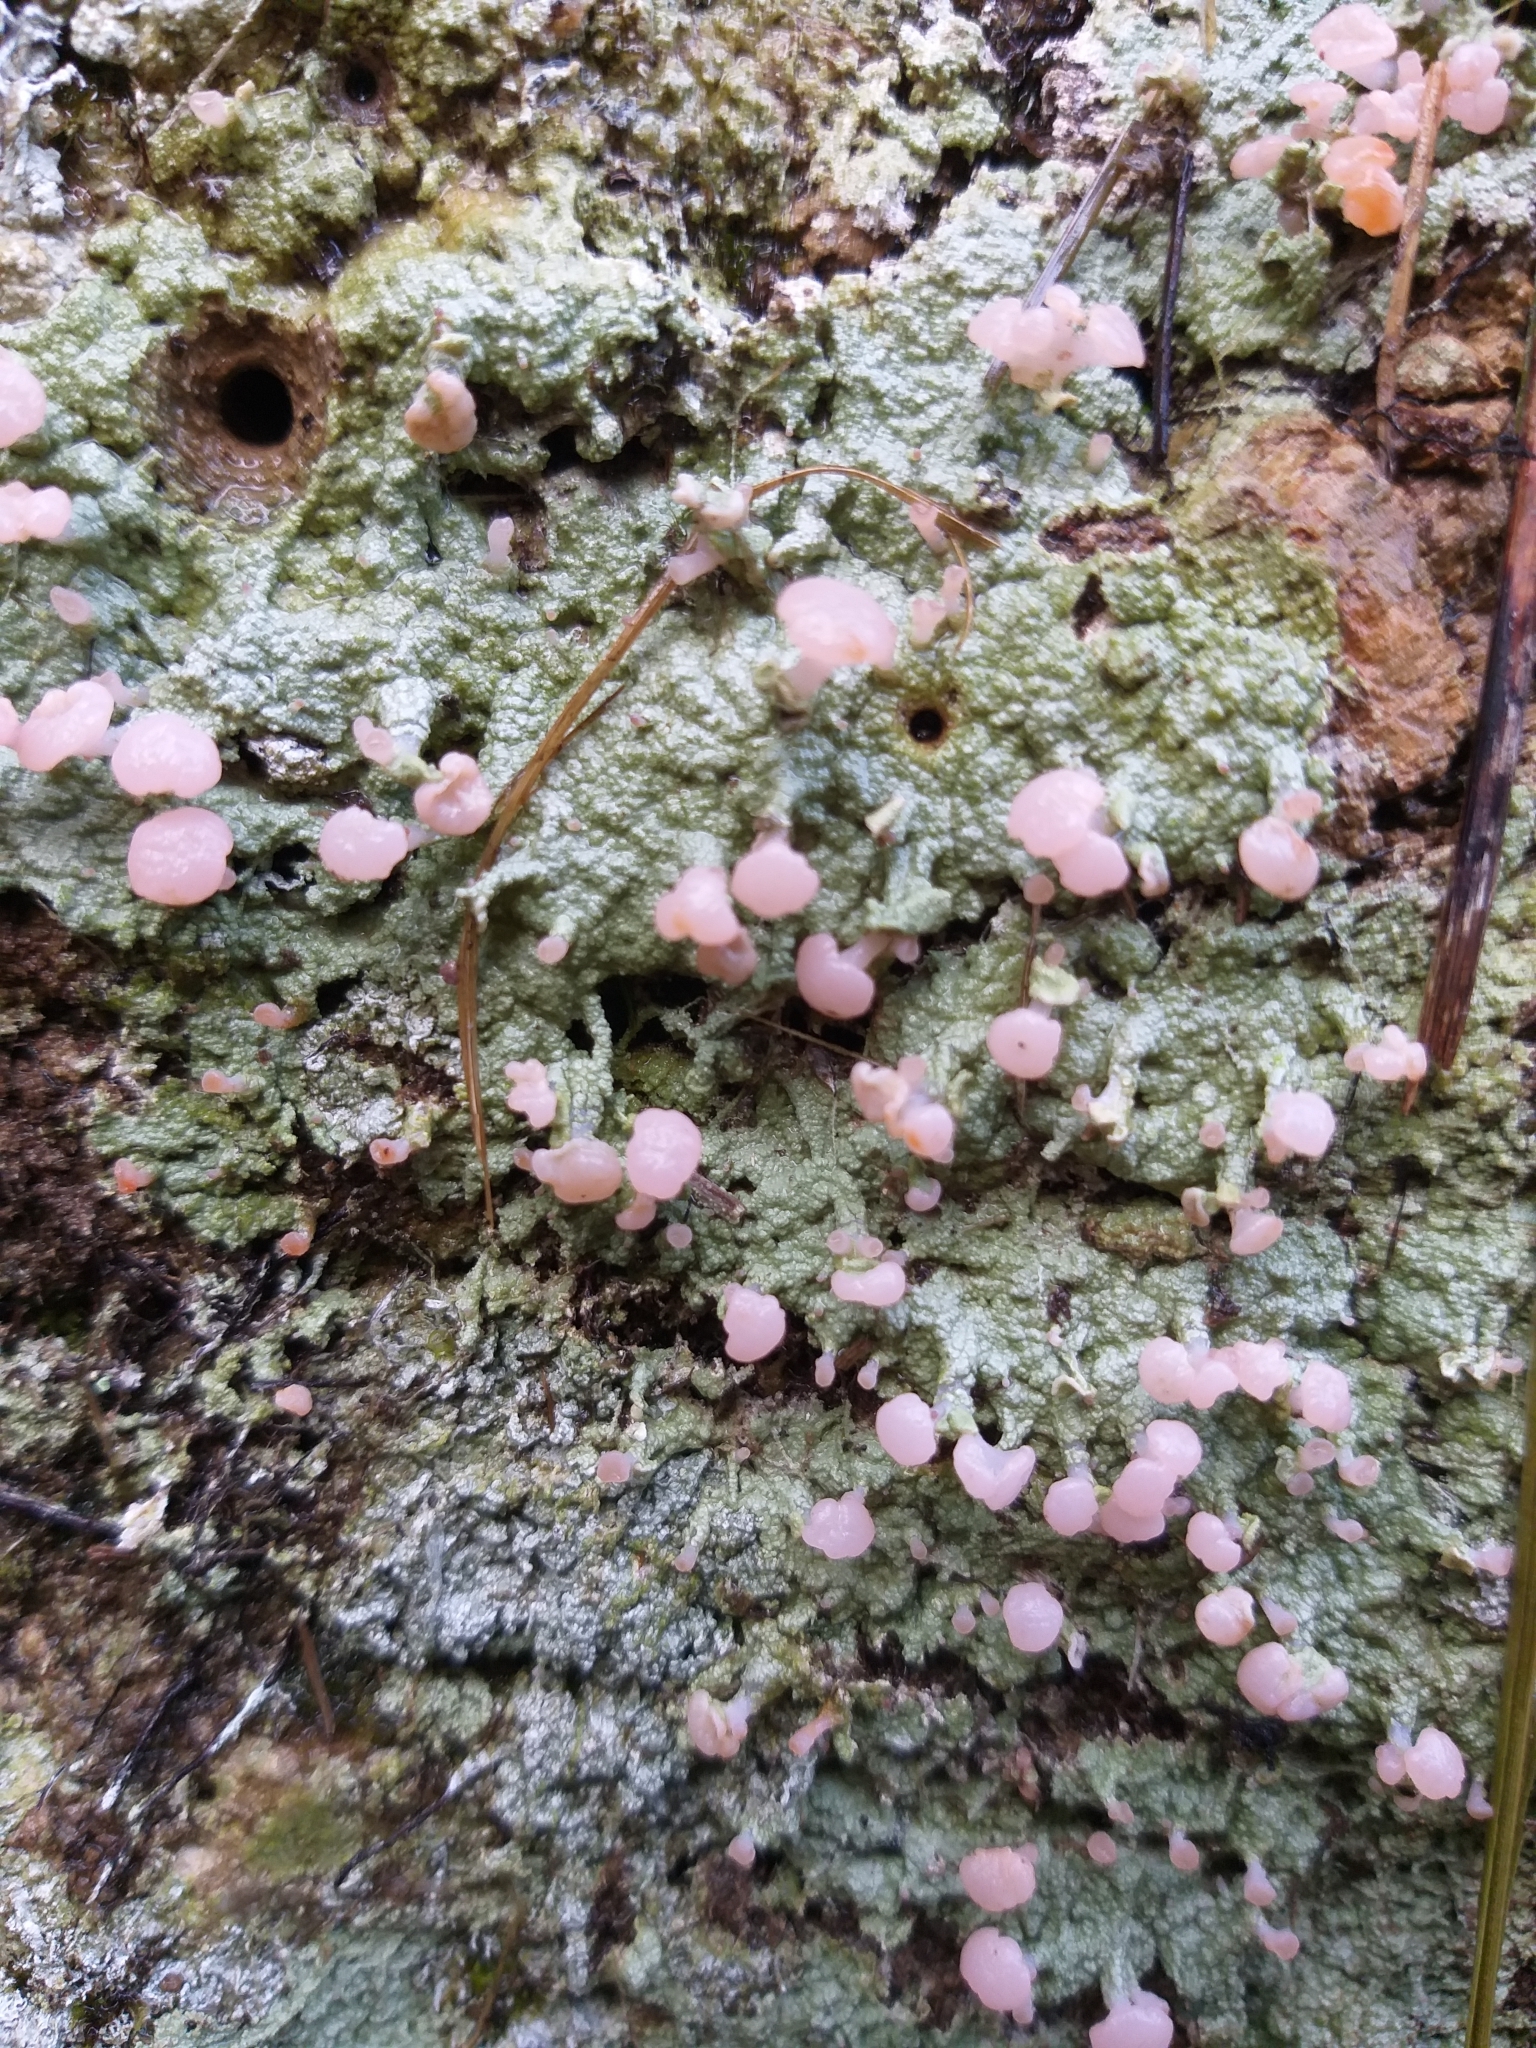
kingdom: Fungi
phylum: Ascomycota
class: Lecanoromycetes
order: Baeomycetales
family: Baeomycetaceae
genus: Baeomyces
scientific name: Baeomyces heteromorphus
